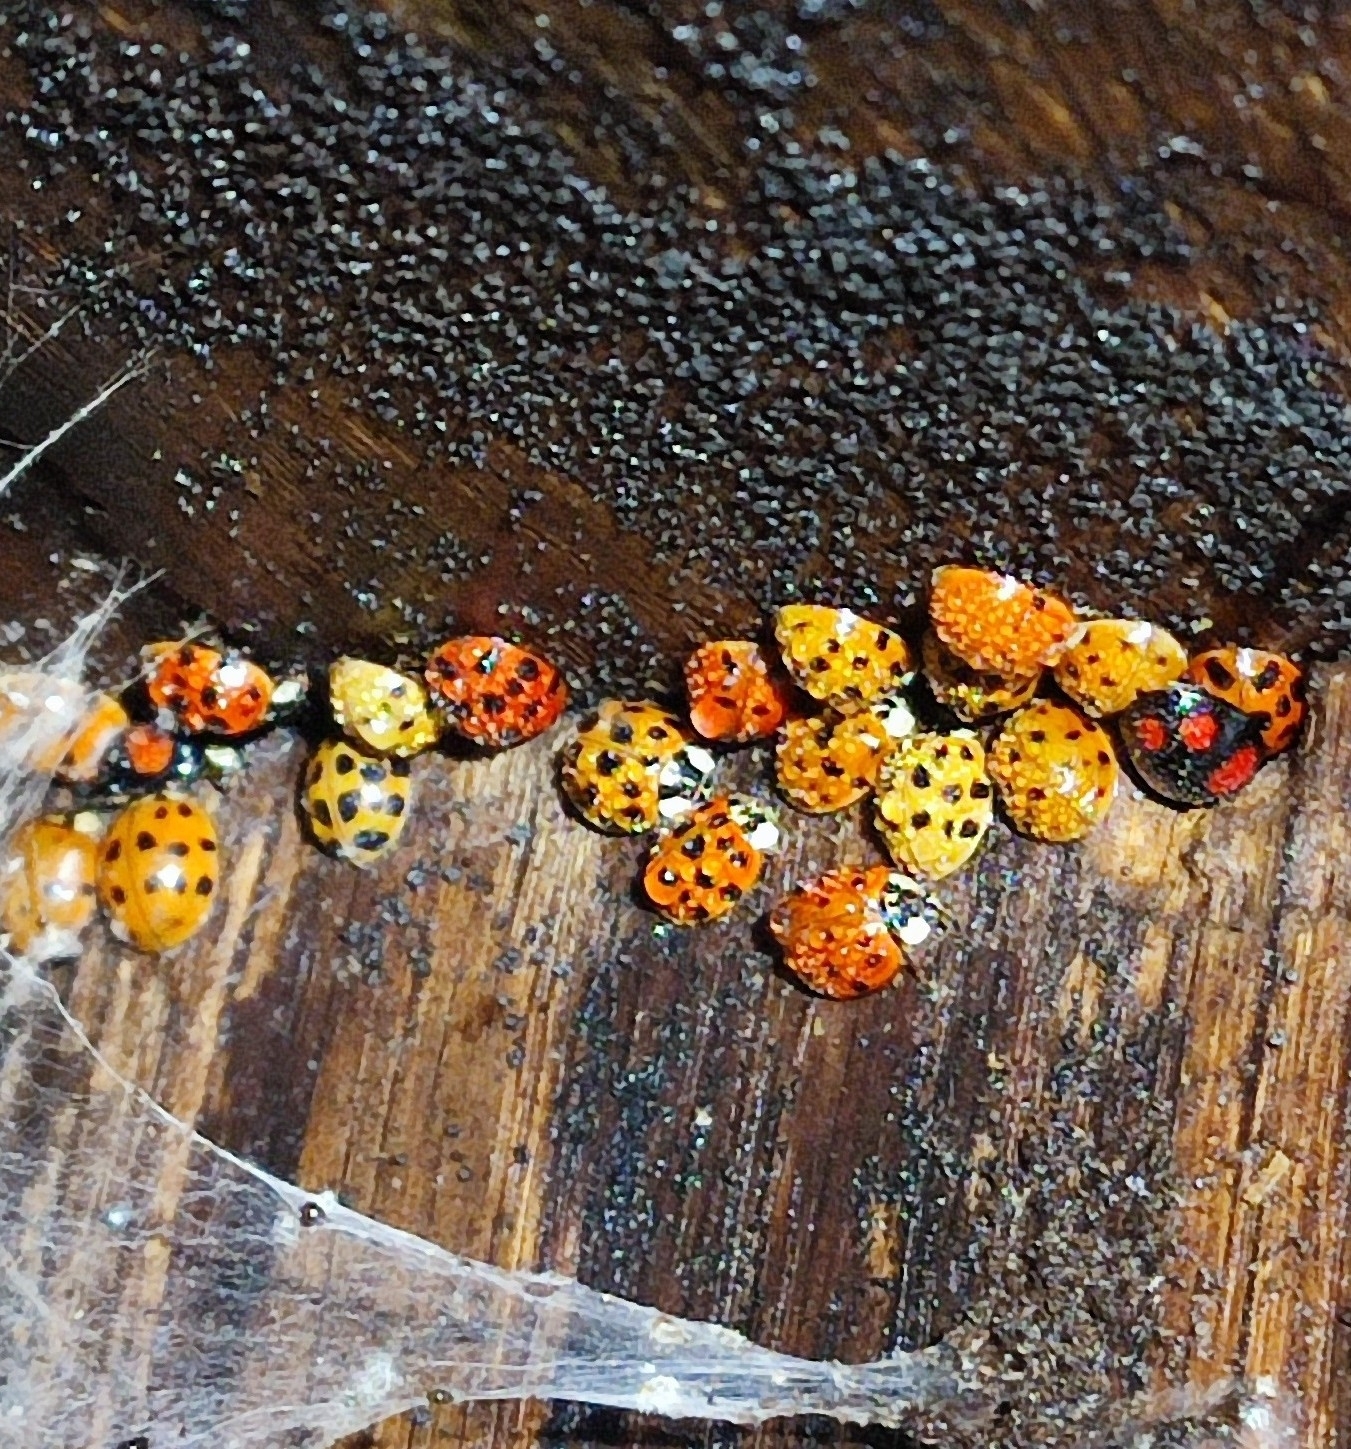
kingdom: Animalia
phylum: Arthropoda
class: Insecta
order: Coleoptera
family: Coccinellidae
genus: Harmonia
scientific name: Harmonia axyridis
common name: Harlequin ladybird
